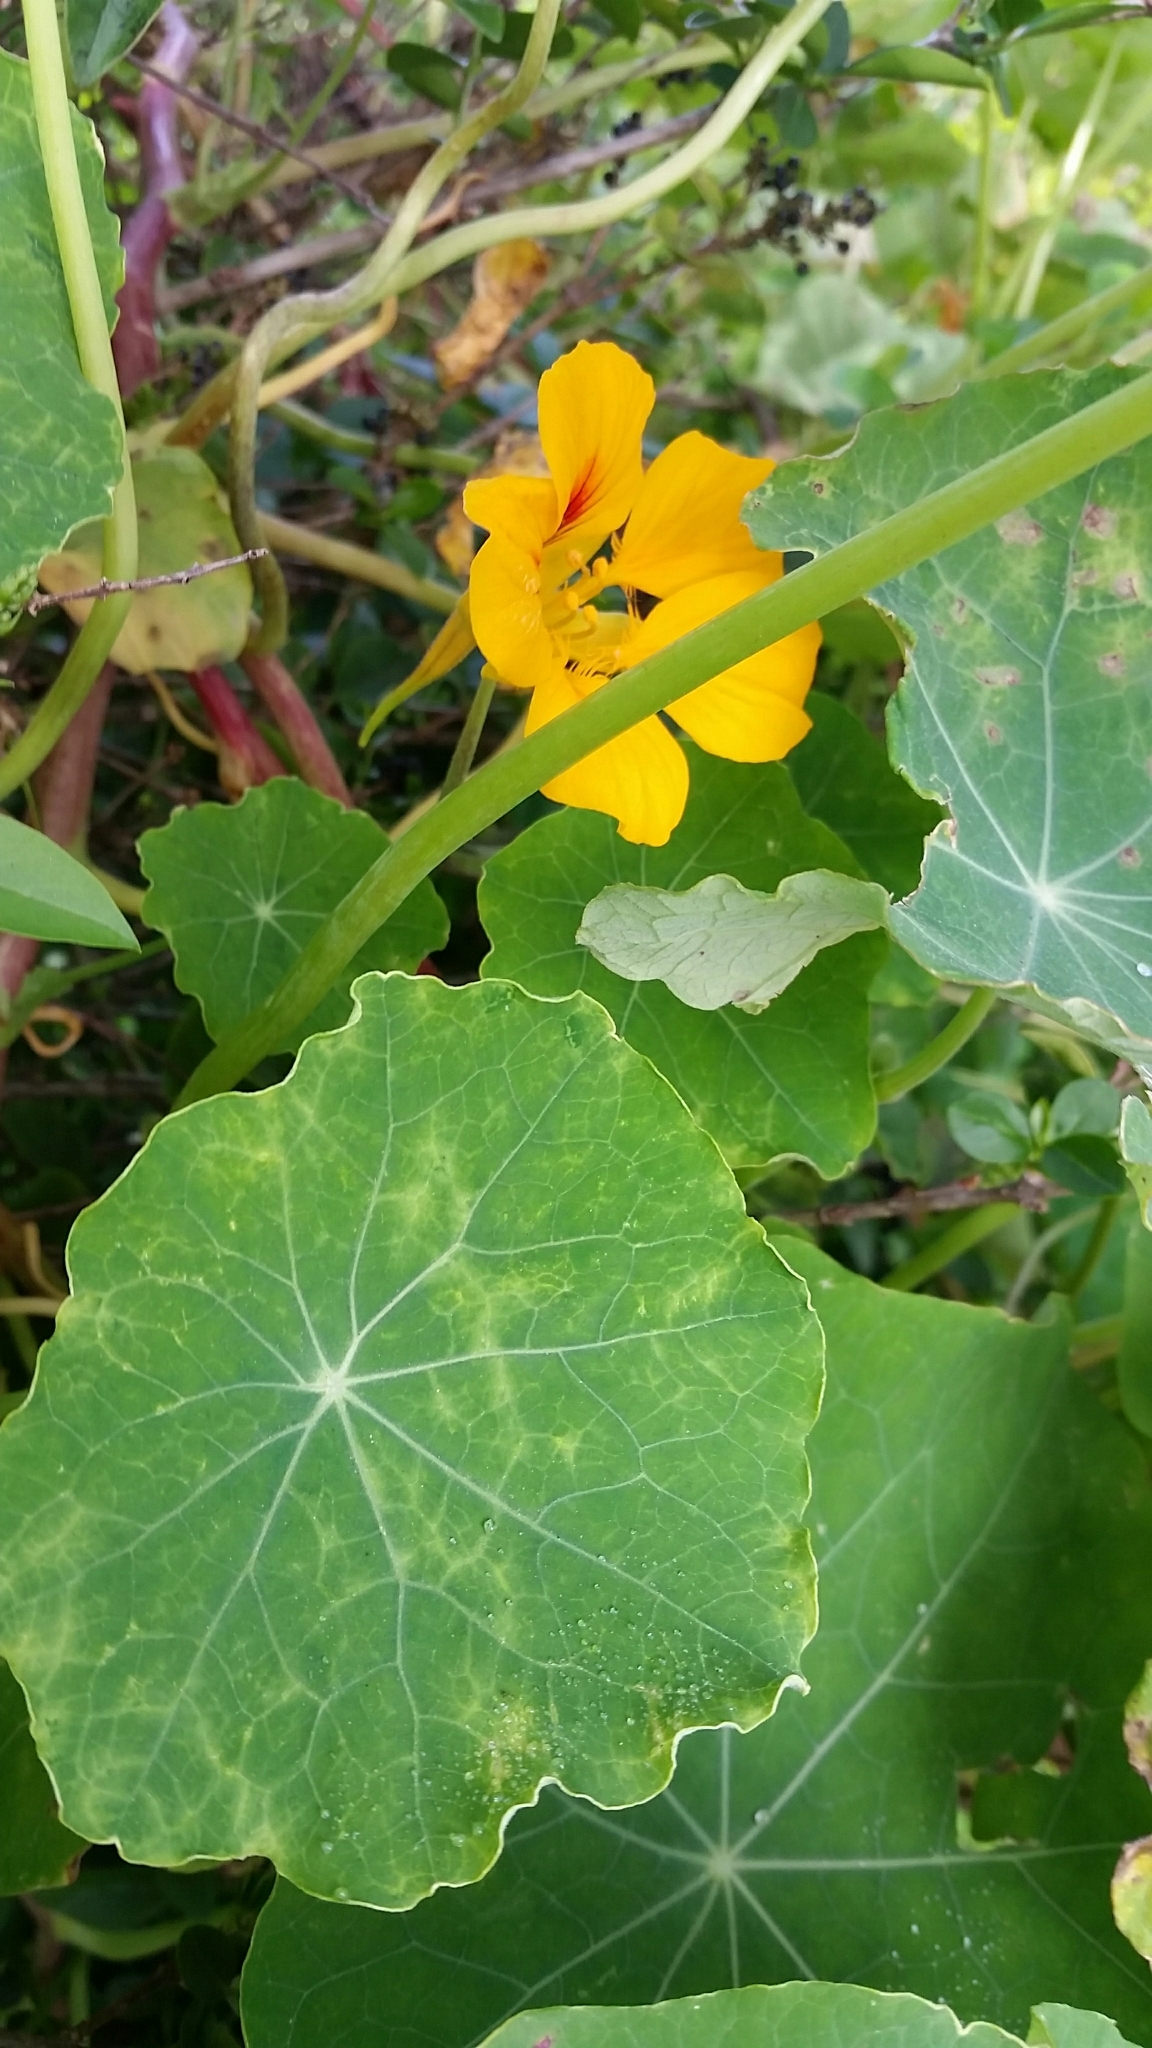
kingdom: Plantae
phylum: Tracheophyta
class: Magnoliopsida
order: Brassicales
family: Tropaeolaceae
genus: Tropaeolum
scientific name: Tropaeolum majus
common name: Nasturtium
